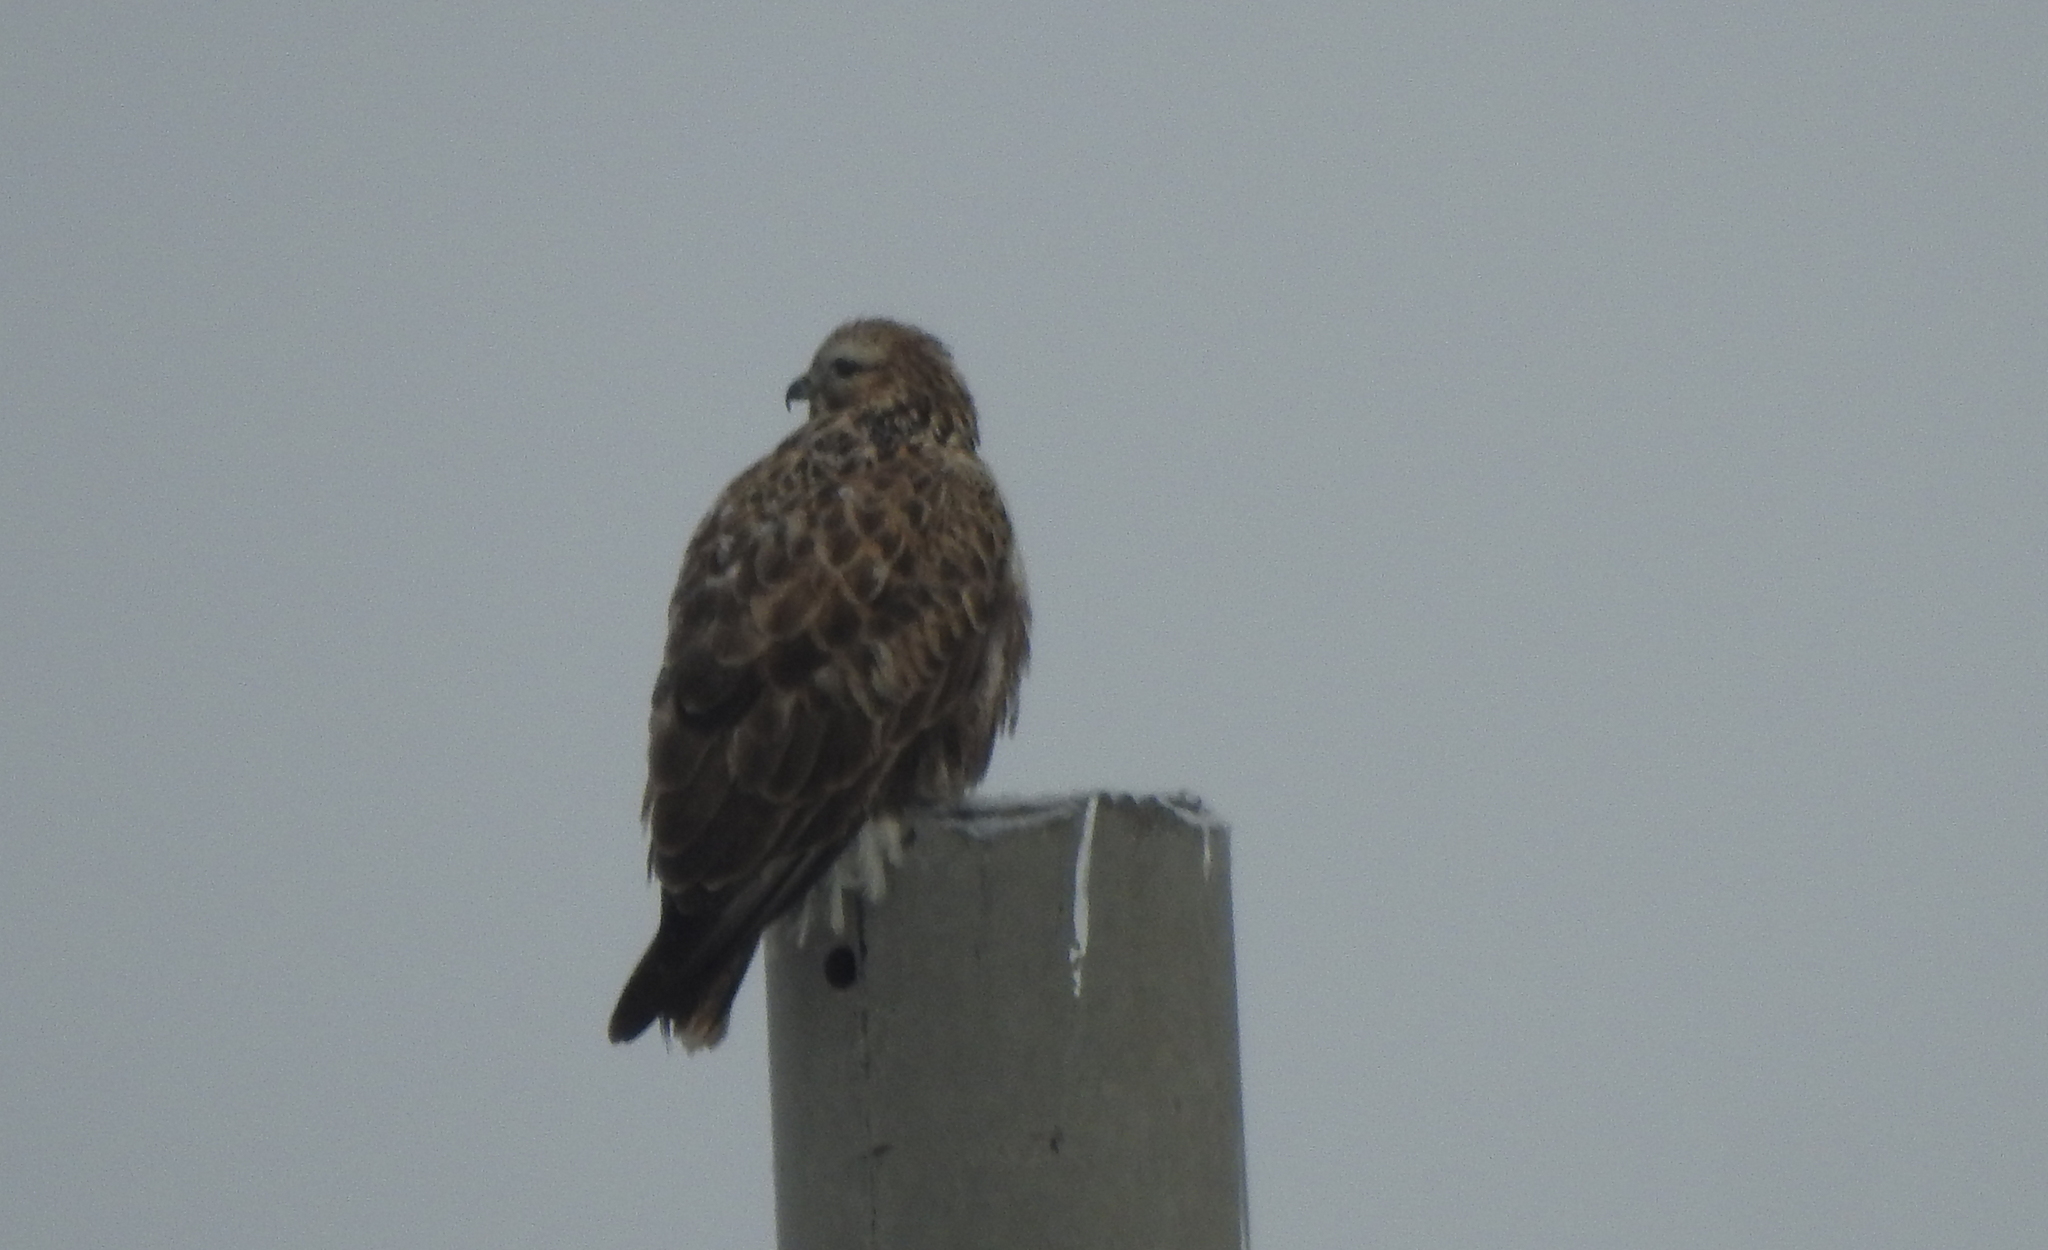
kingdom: Animalia
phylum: Chordata
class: Aves
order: Accipitriformes
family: Accipitridae
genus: Buteo
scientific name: Buteo hemilasius
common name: Upland buzzard
